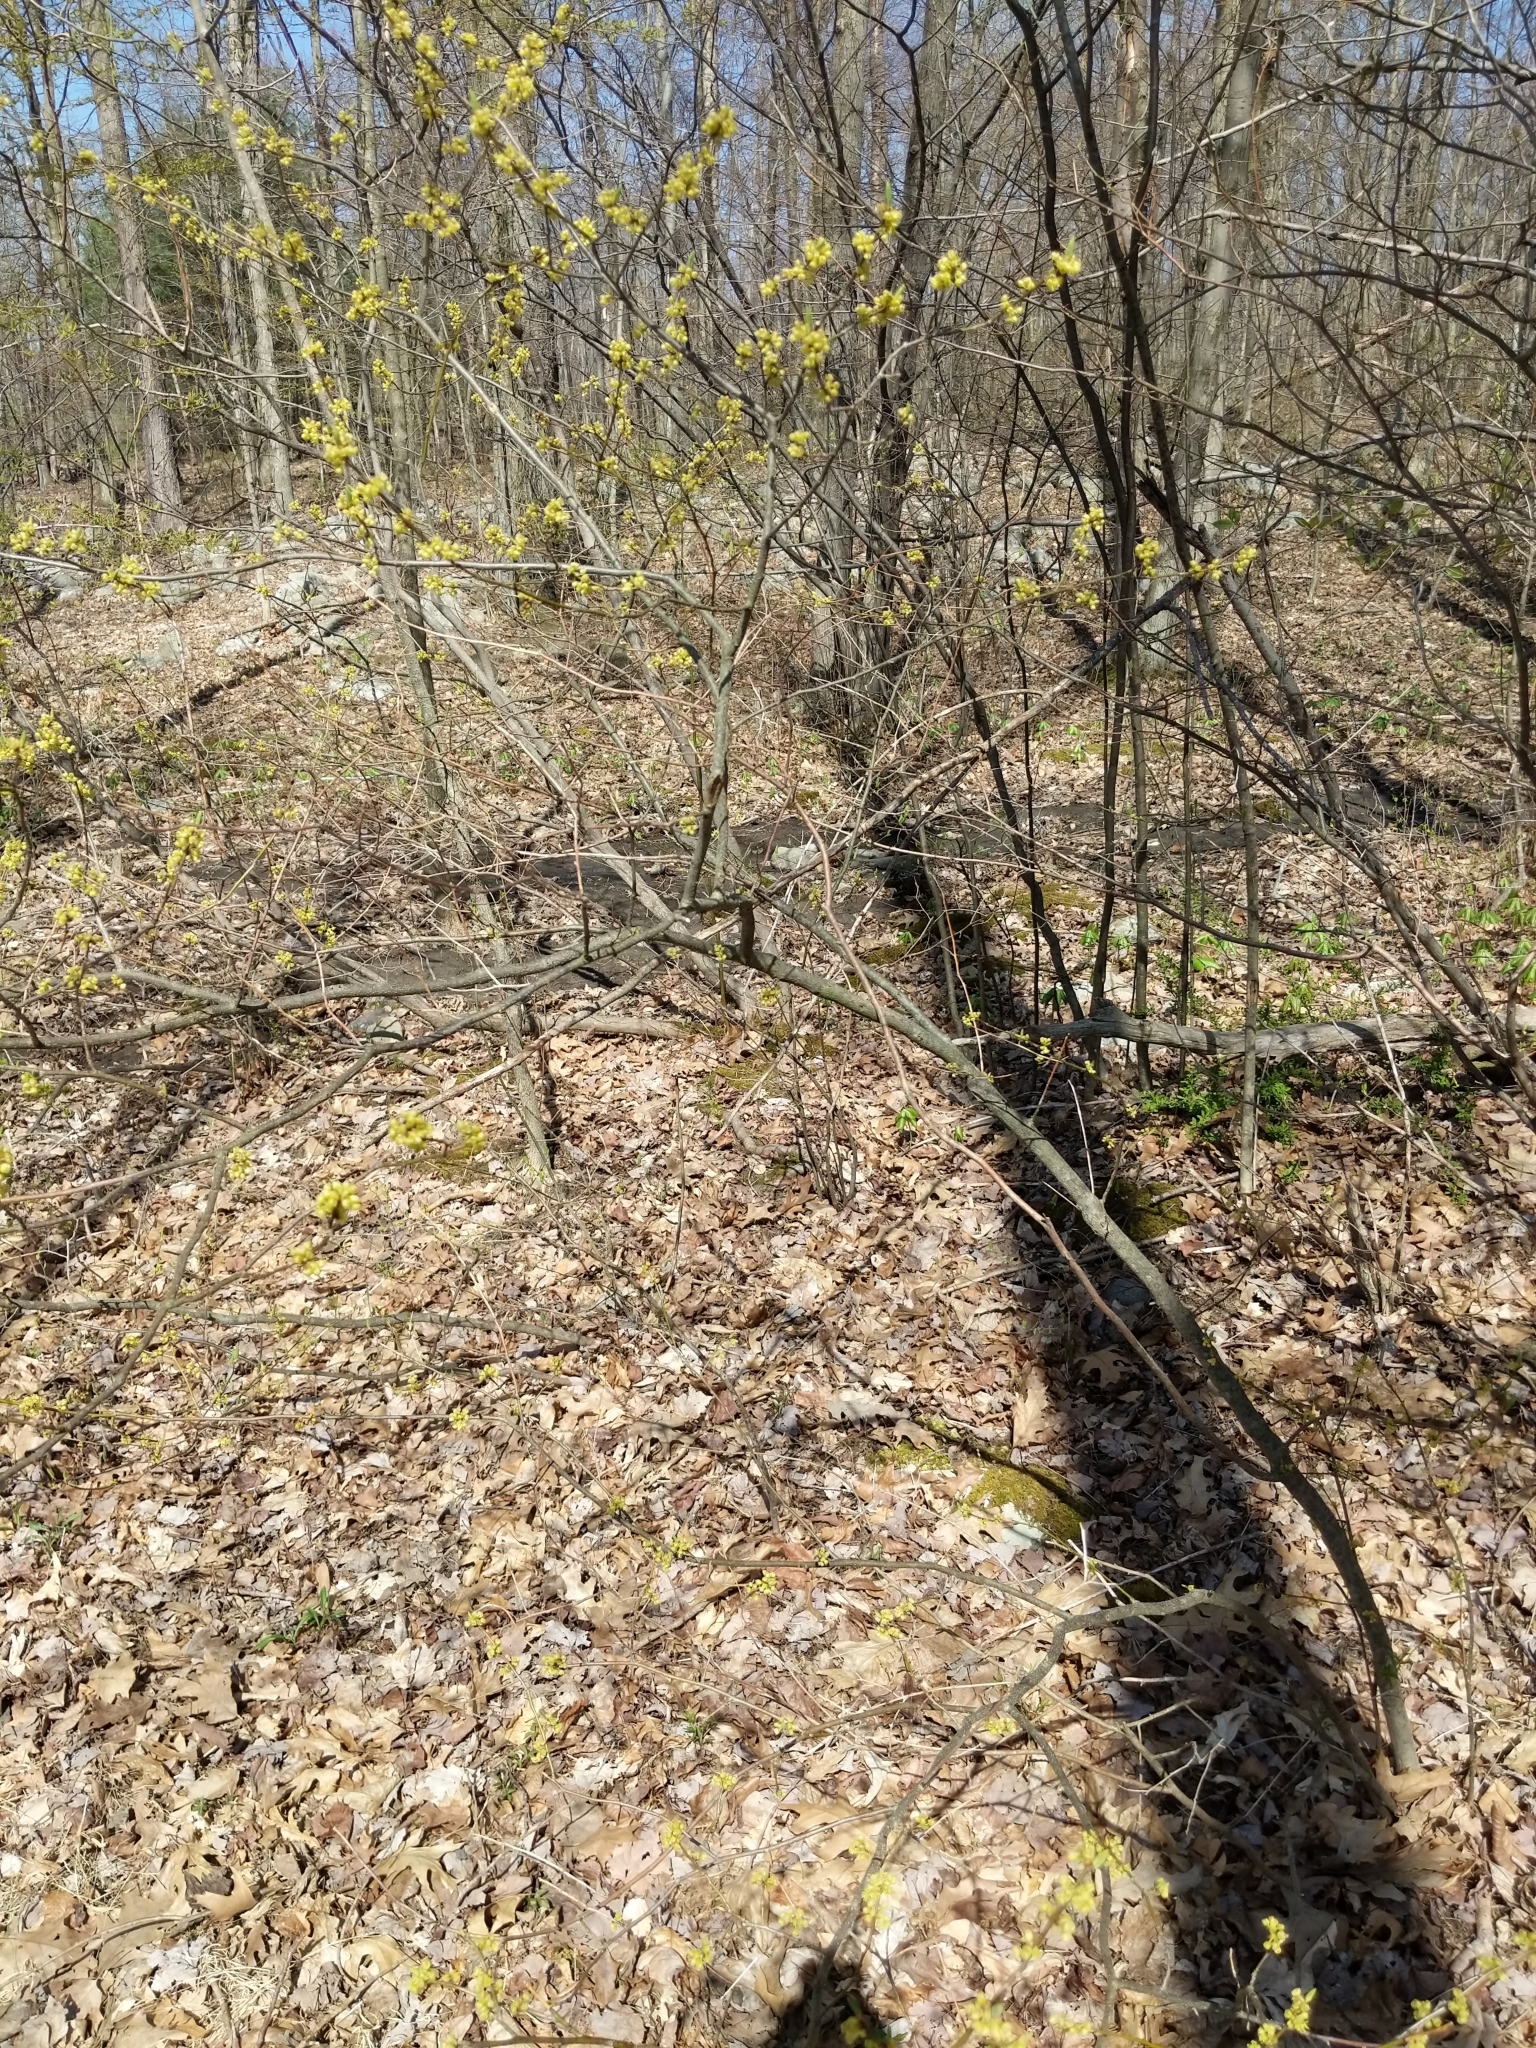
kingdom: Plantae
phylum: Tracheophyta
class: Magnoliopsida
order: Laurales
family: Lauraceae
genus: Lindera
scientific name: Lindera benzoin
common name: Spicebush
